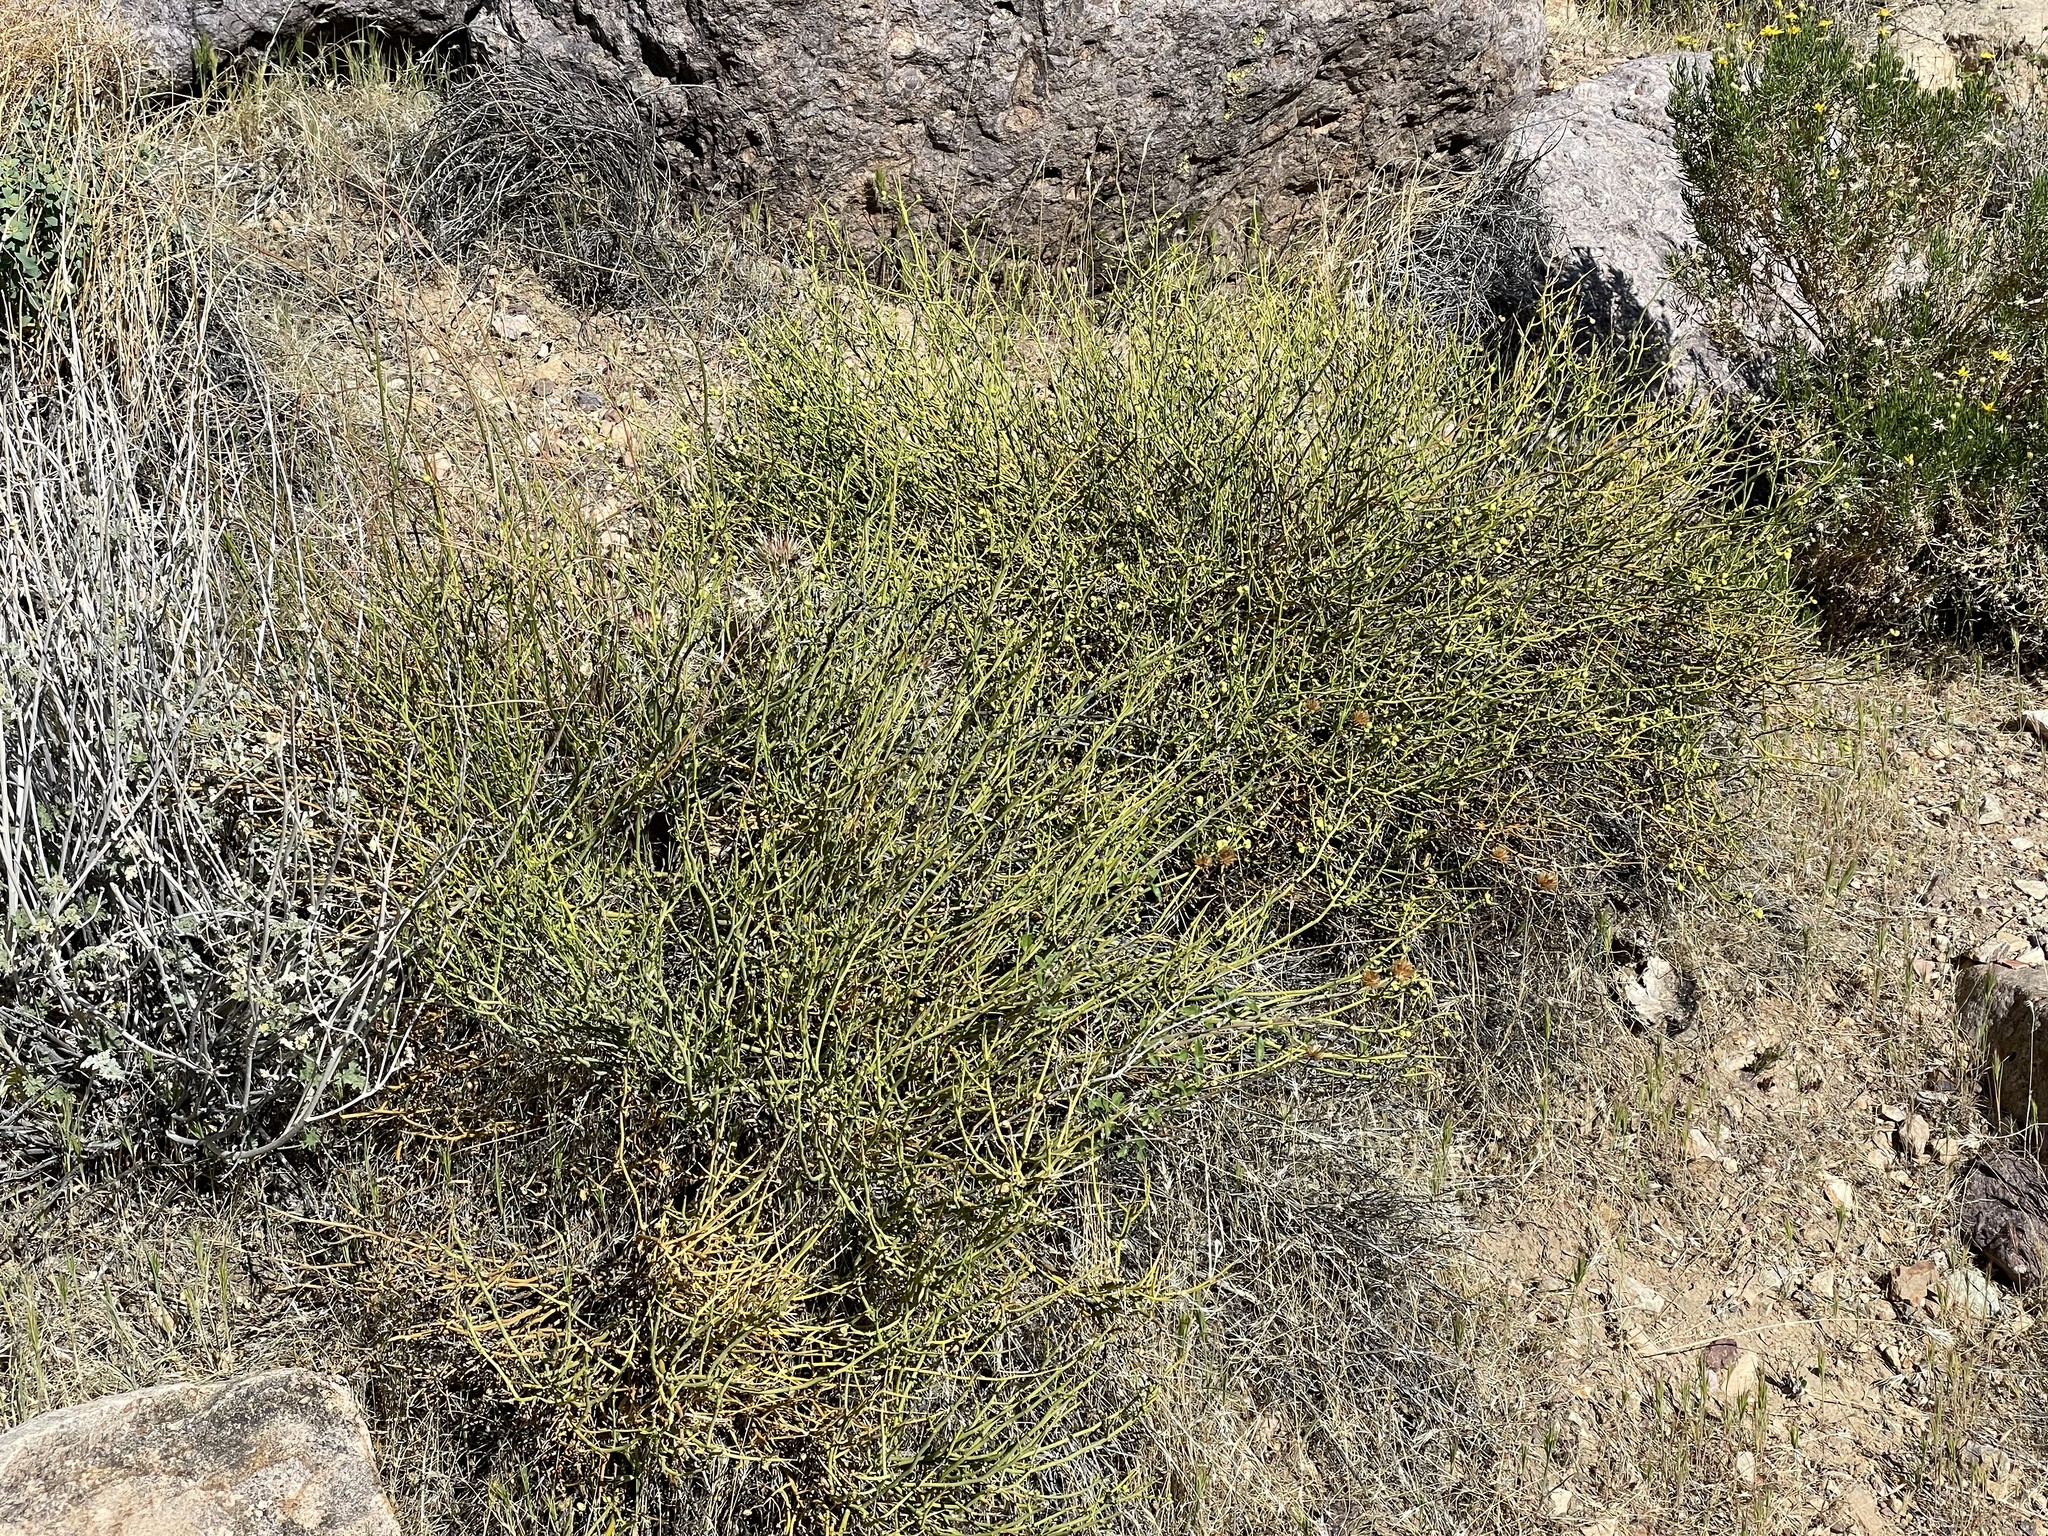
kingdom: Plantae
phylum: Tracheophyta
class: Magnoliopsida
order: Sapindales
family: Rutaceae
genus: Thamnosma
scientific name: Thamnosma montana
